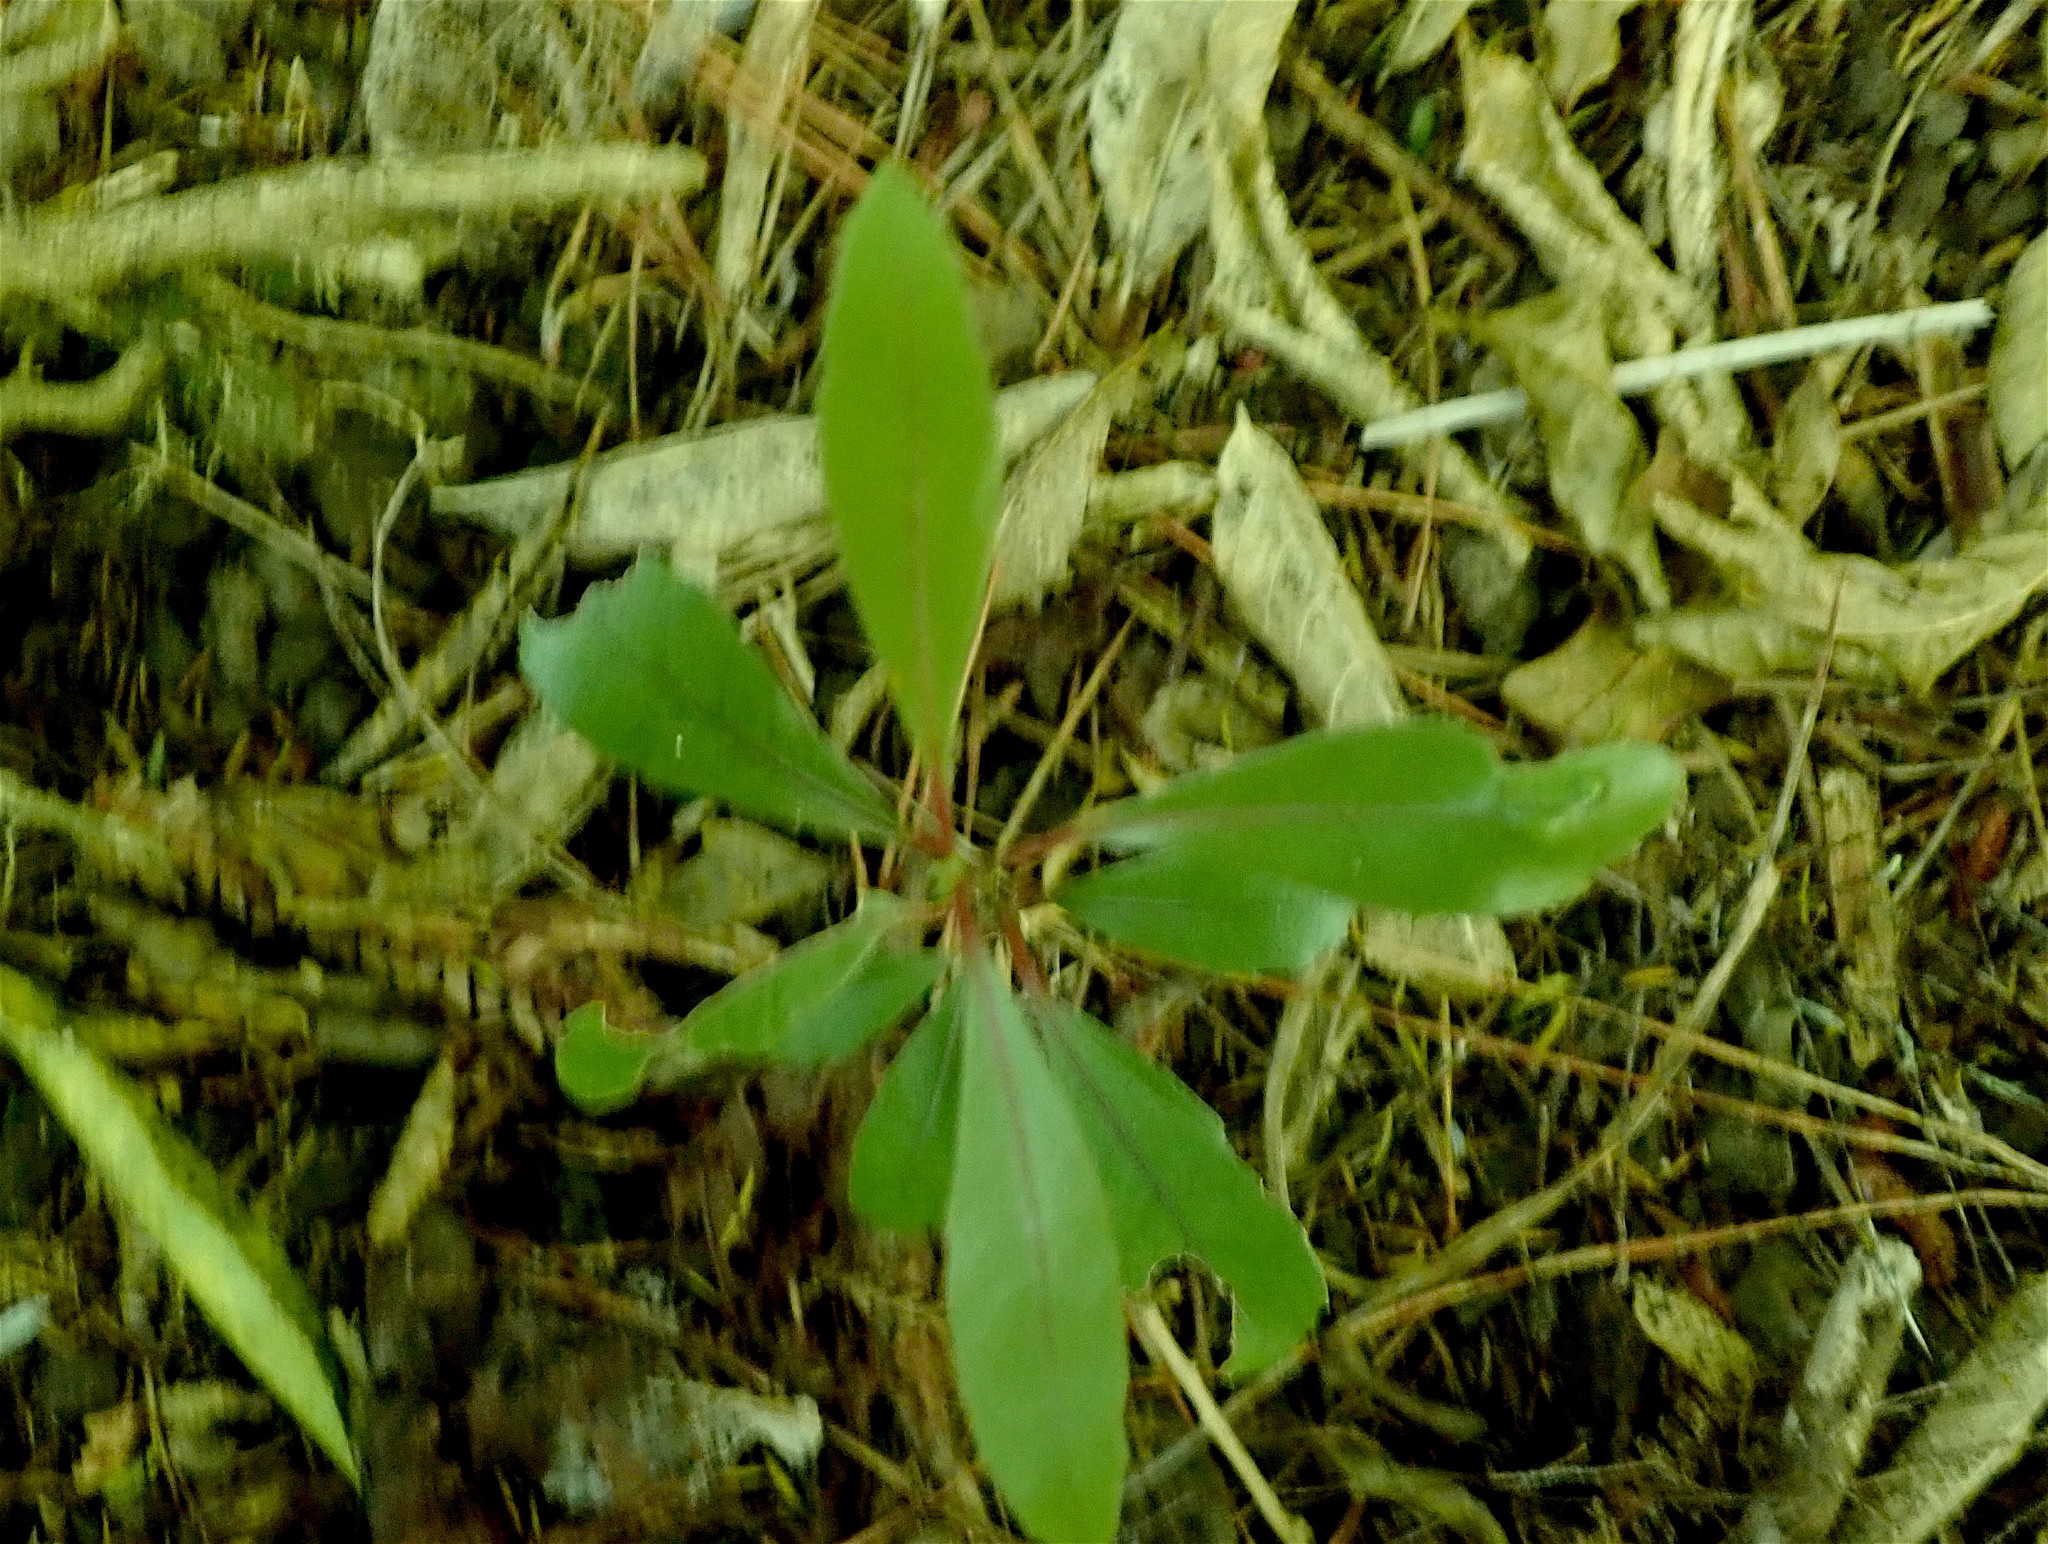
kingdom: Plantae
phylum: Tracheophyta
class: Magnoliopsida
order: Laurales
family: Monimiaceae
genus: Hedycarya
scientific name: Hedycarya arborea
